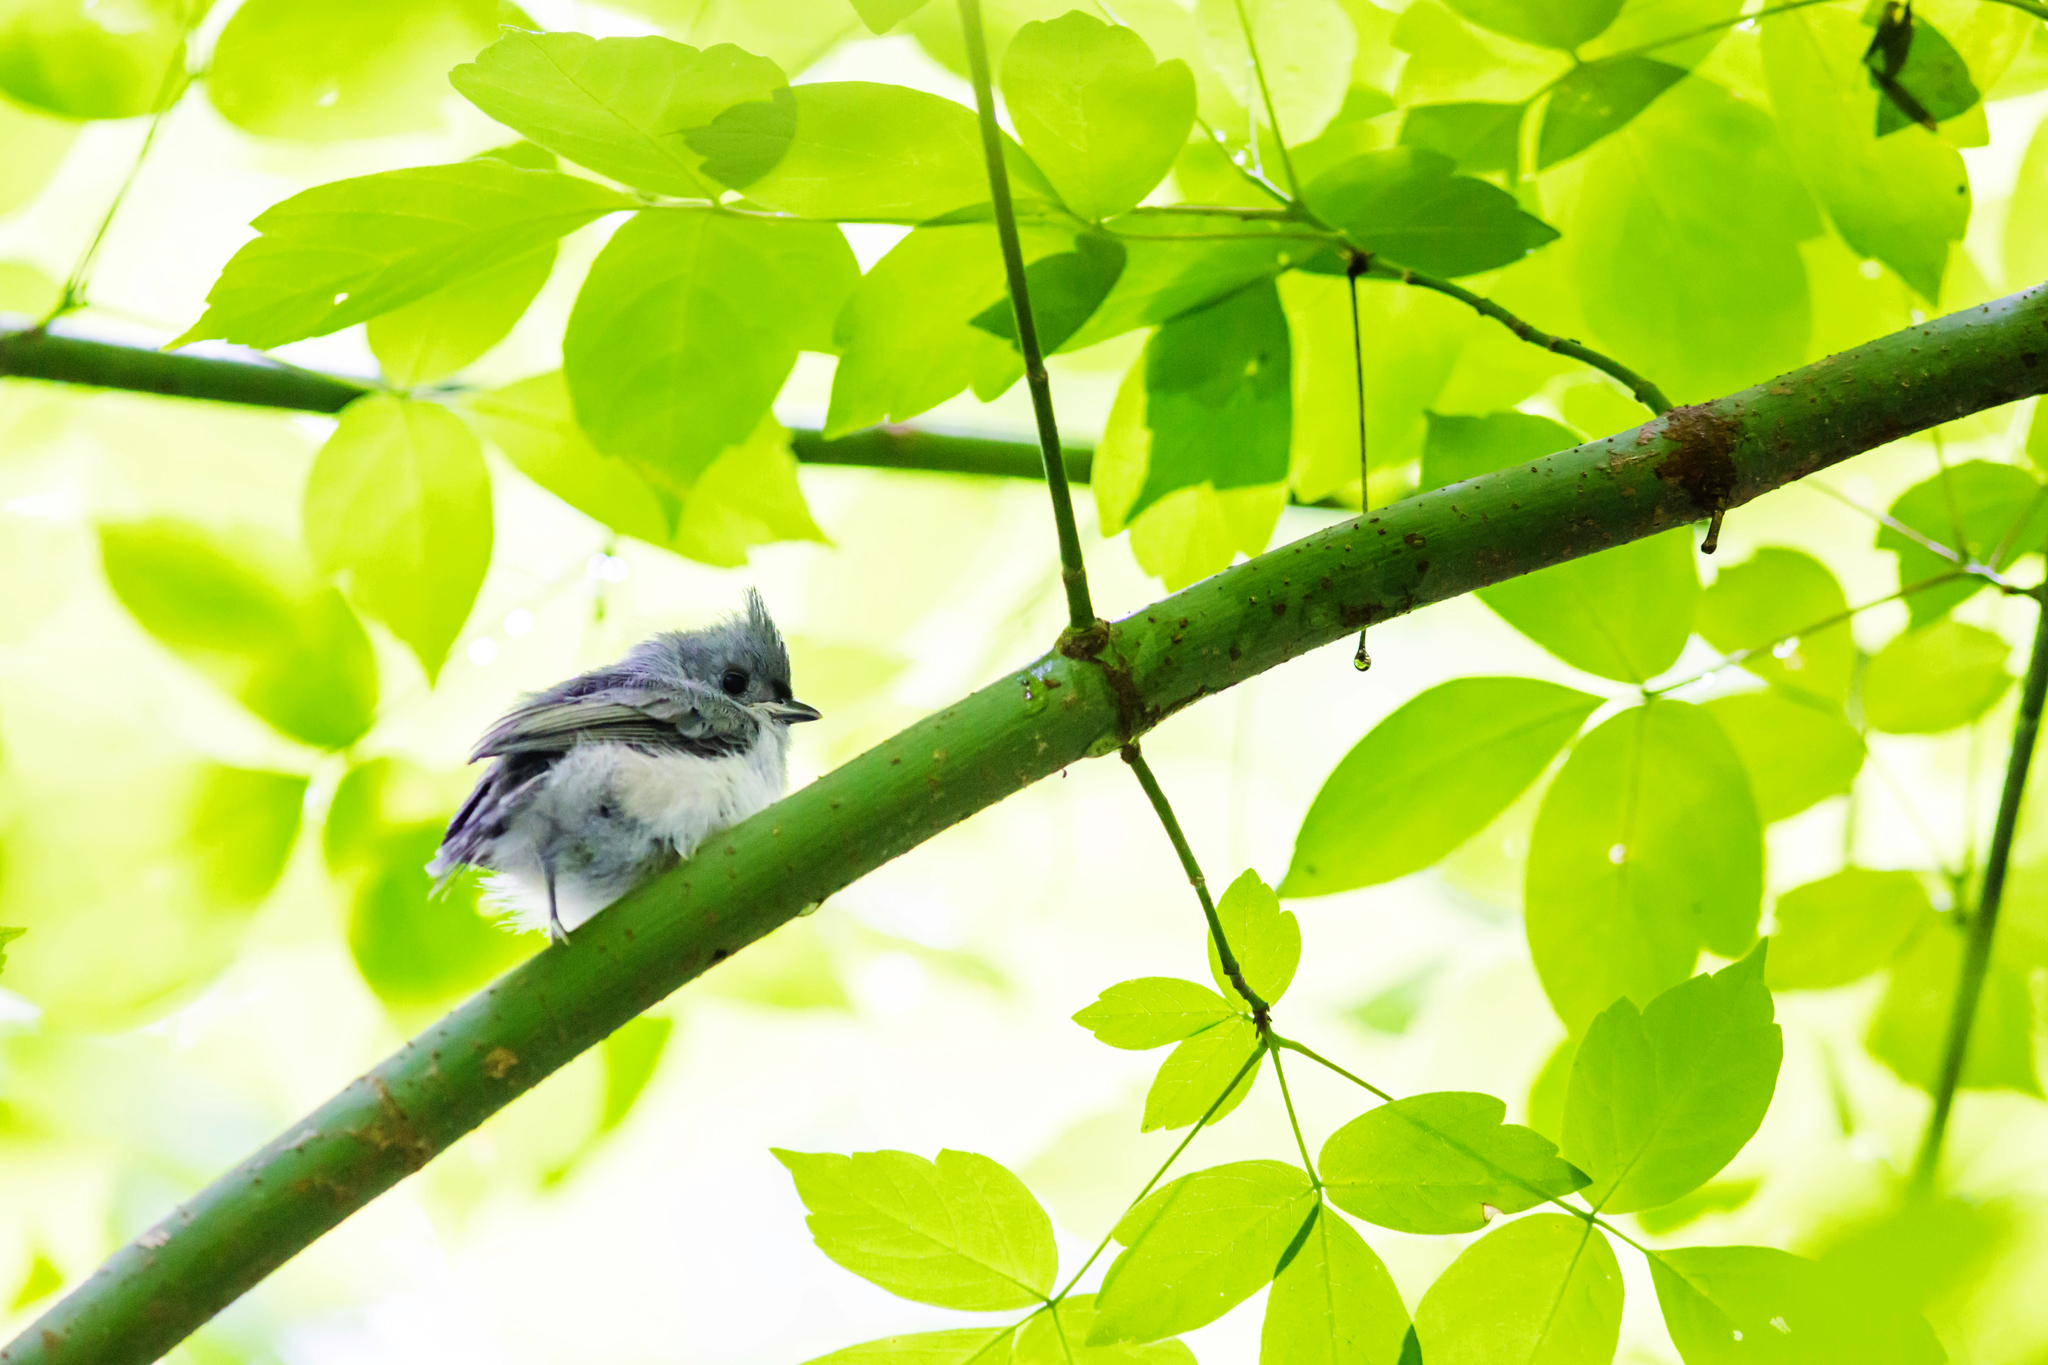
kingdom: Animalia
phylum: Chordata
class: Aves
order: Passeriformes
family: Paridae
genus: Baeolophus
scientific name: Baeolophus bicolor
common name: Tufted titmouse
